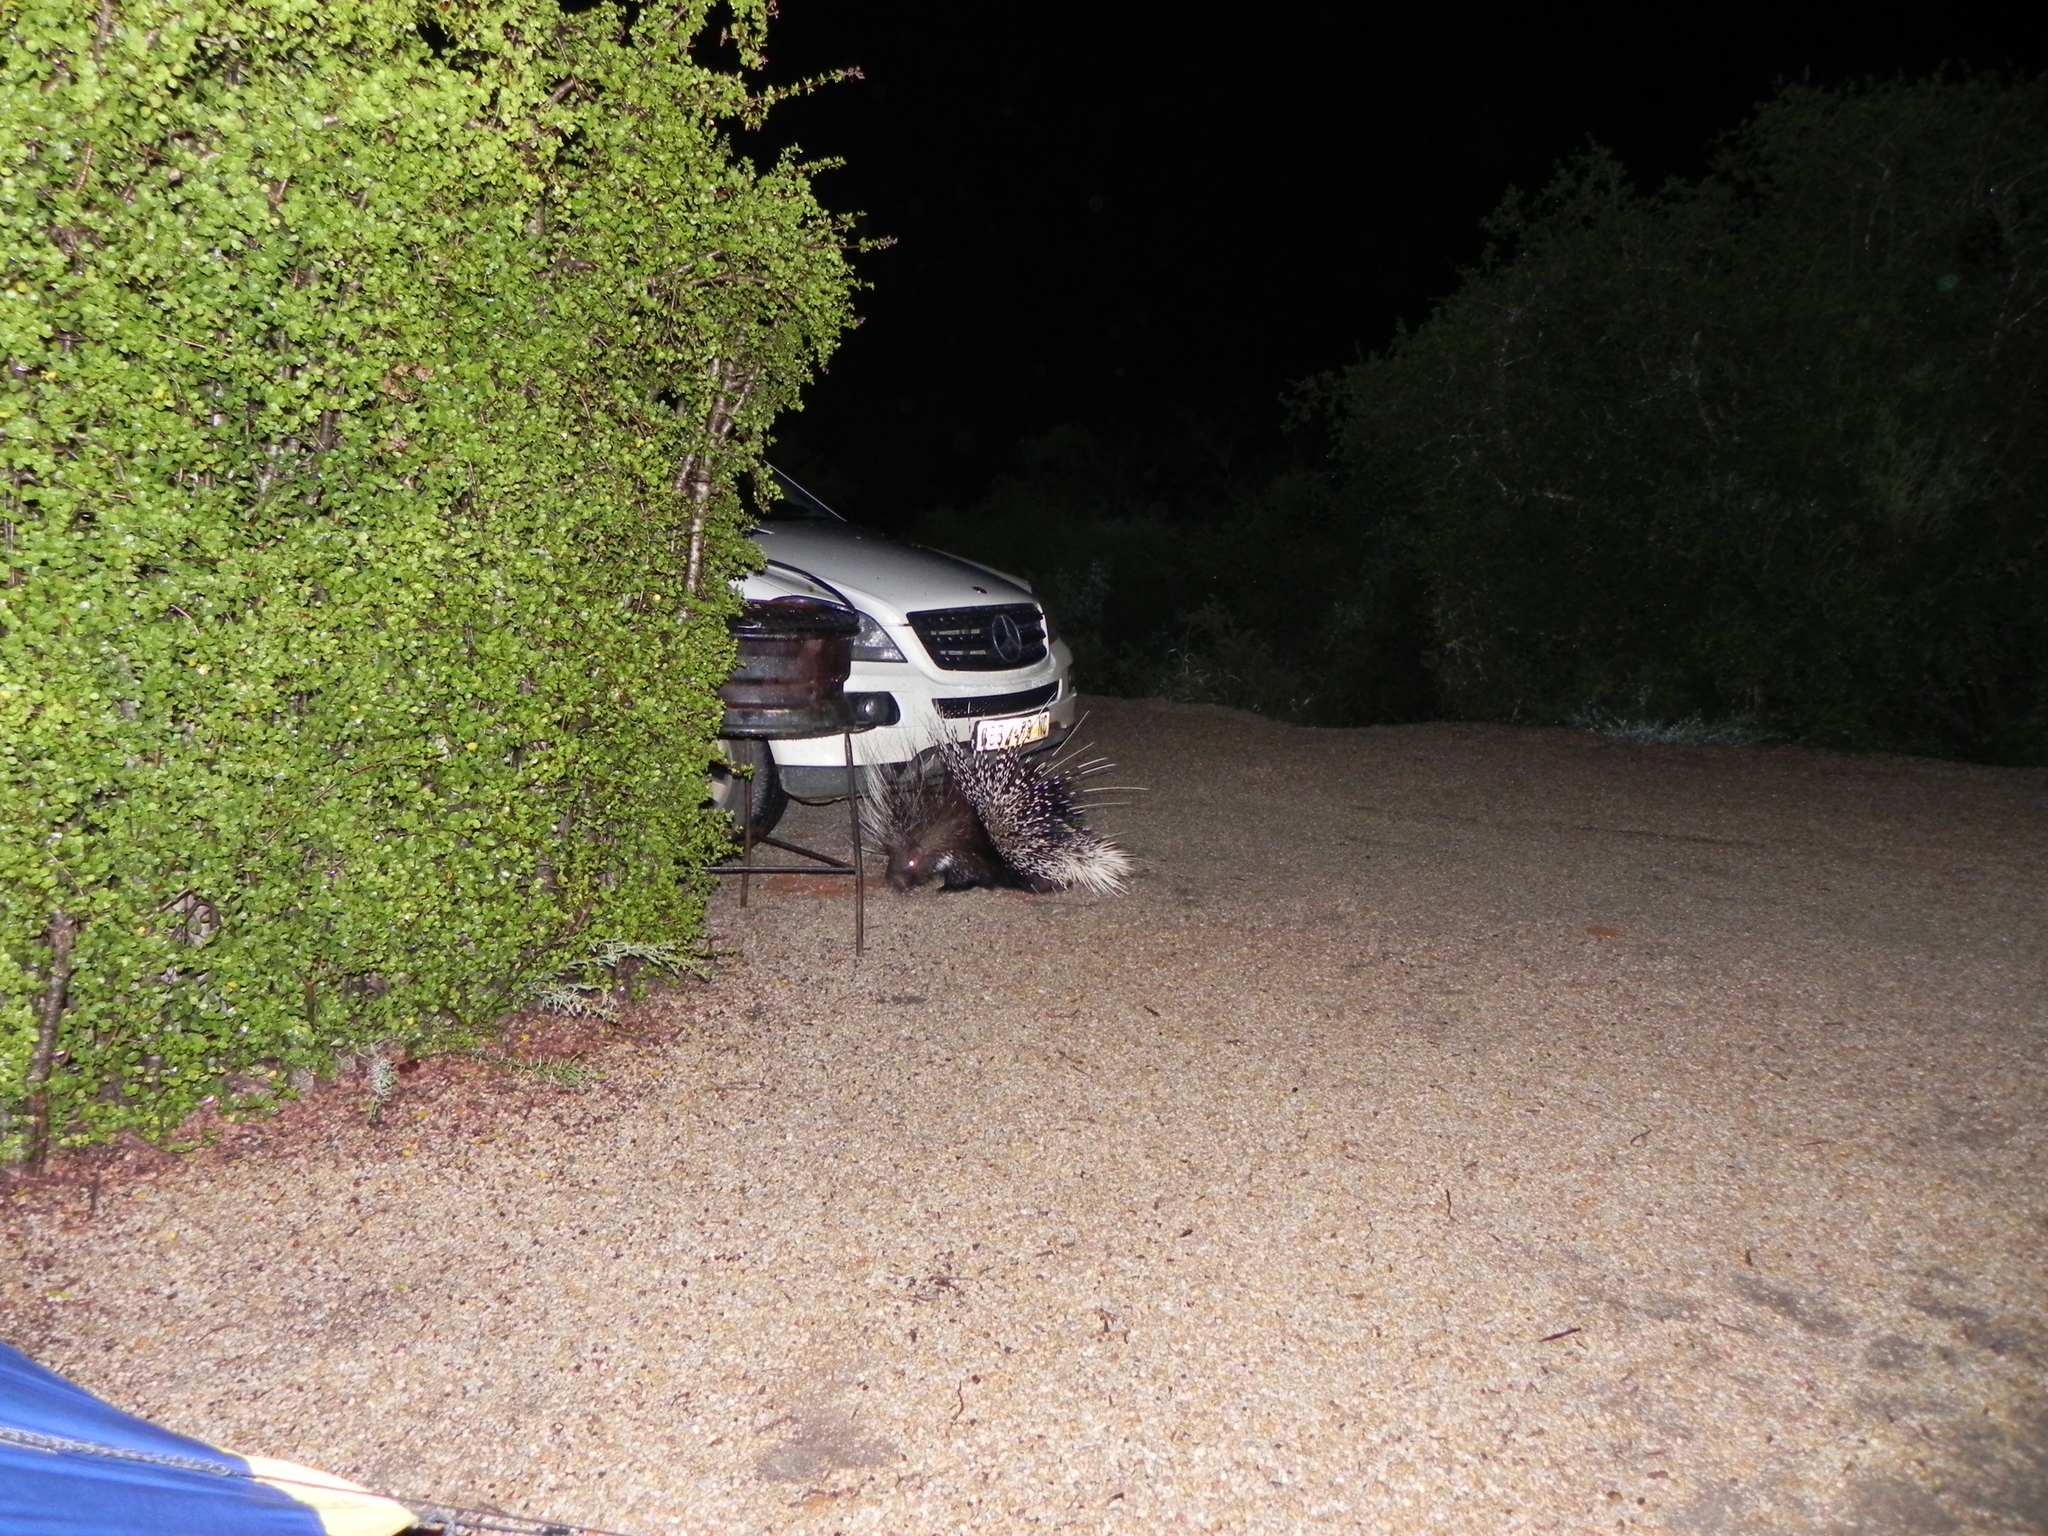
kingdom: Animalia
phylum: Chordata
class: Mammalia
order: Rodentia
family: Hystricidae
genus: Hystrix
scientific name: Hystrix africaeaustralis
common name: Cape porcupine
